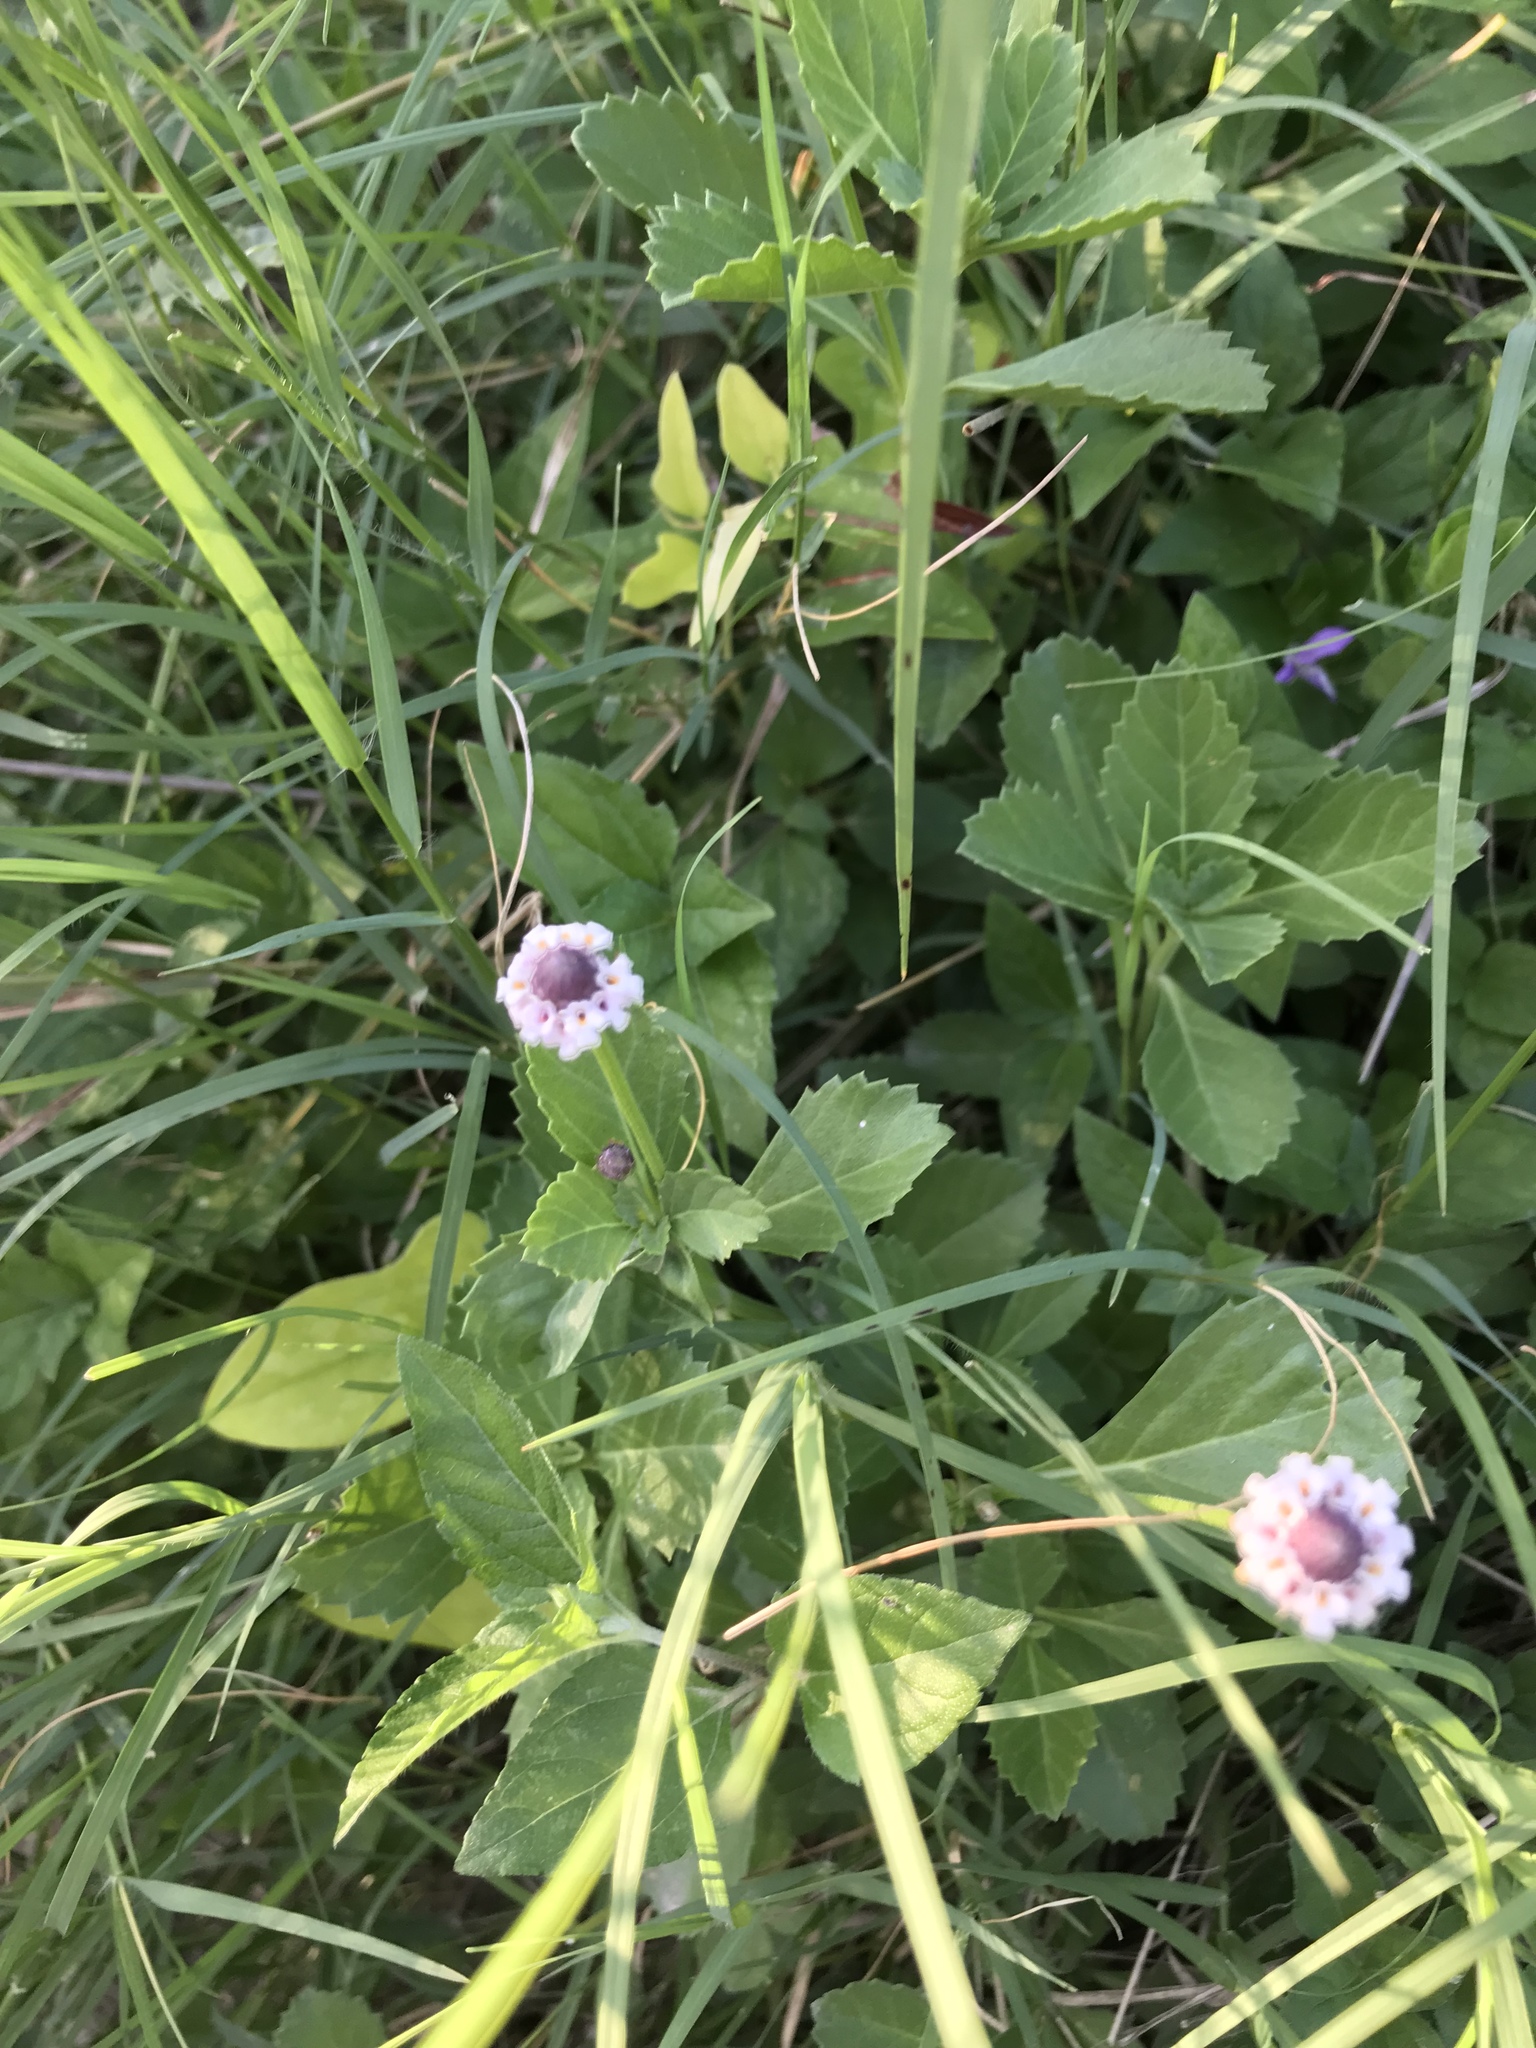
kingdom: Plantae
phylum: Tracheophyta
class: Magnoliopsida
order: Lamiales
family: Verbenaceae
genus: Phyla
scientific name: Phyla nodiflora
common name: Frogfruit
